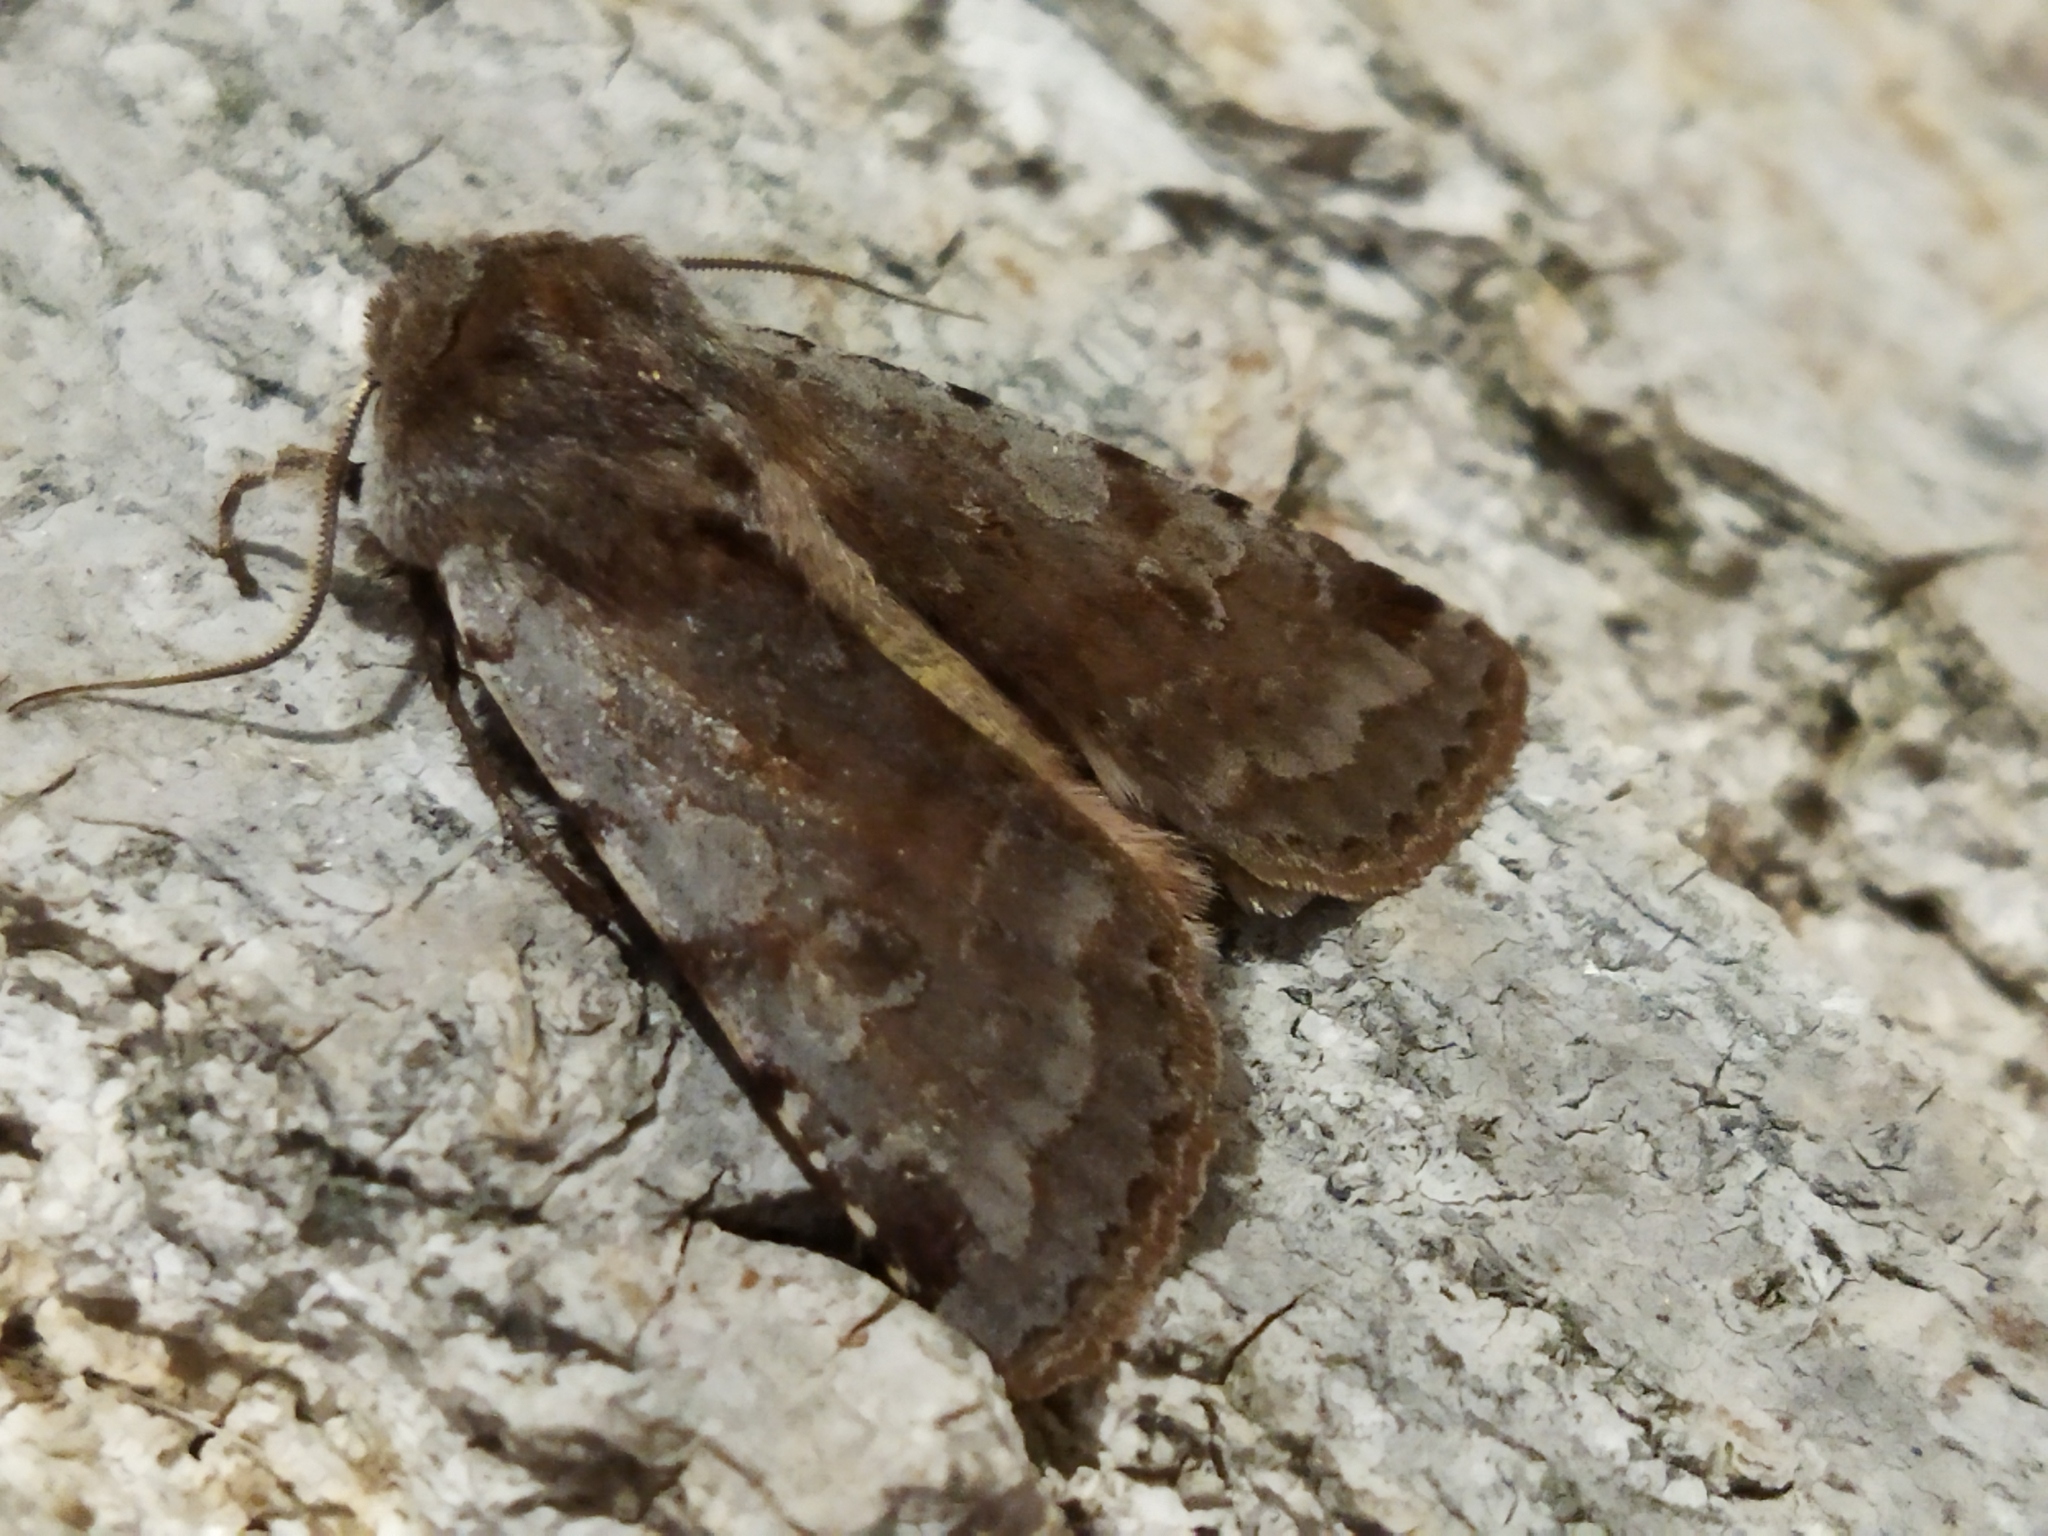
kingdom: Animalia
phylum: Arthropoda
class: Insecta
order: Lepidoptera
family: Noctuidae
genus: Cerastis
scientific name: Cerastis rubricosa
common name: Red chestnut
